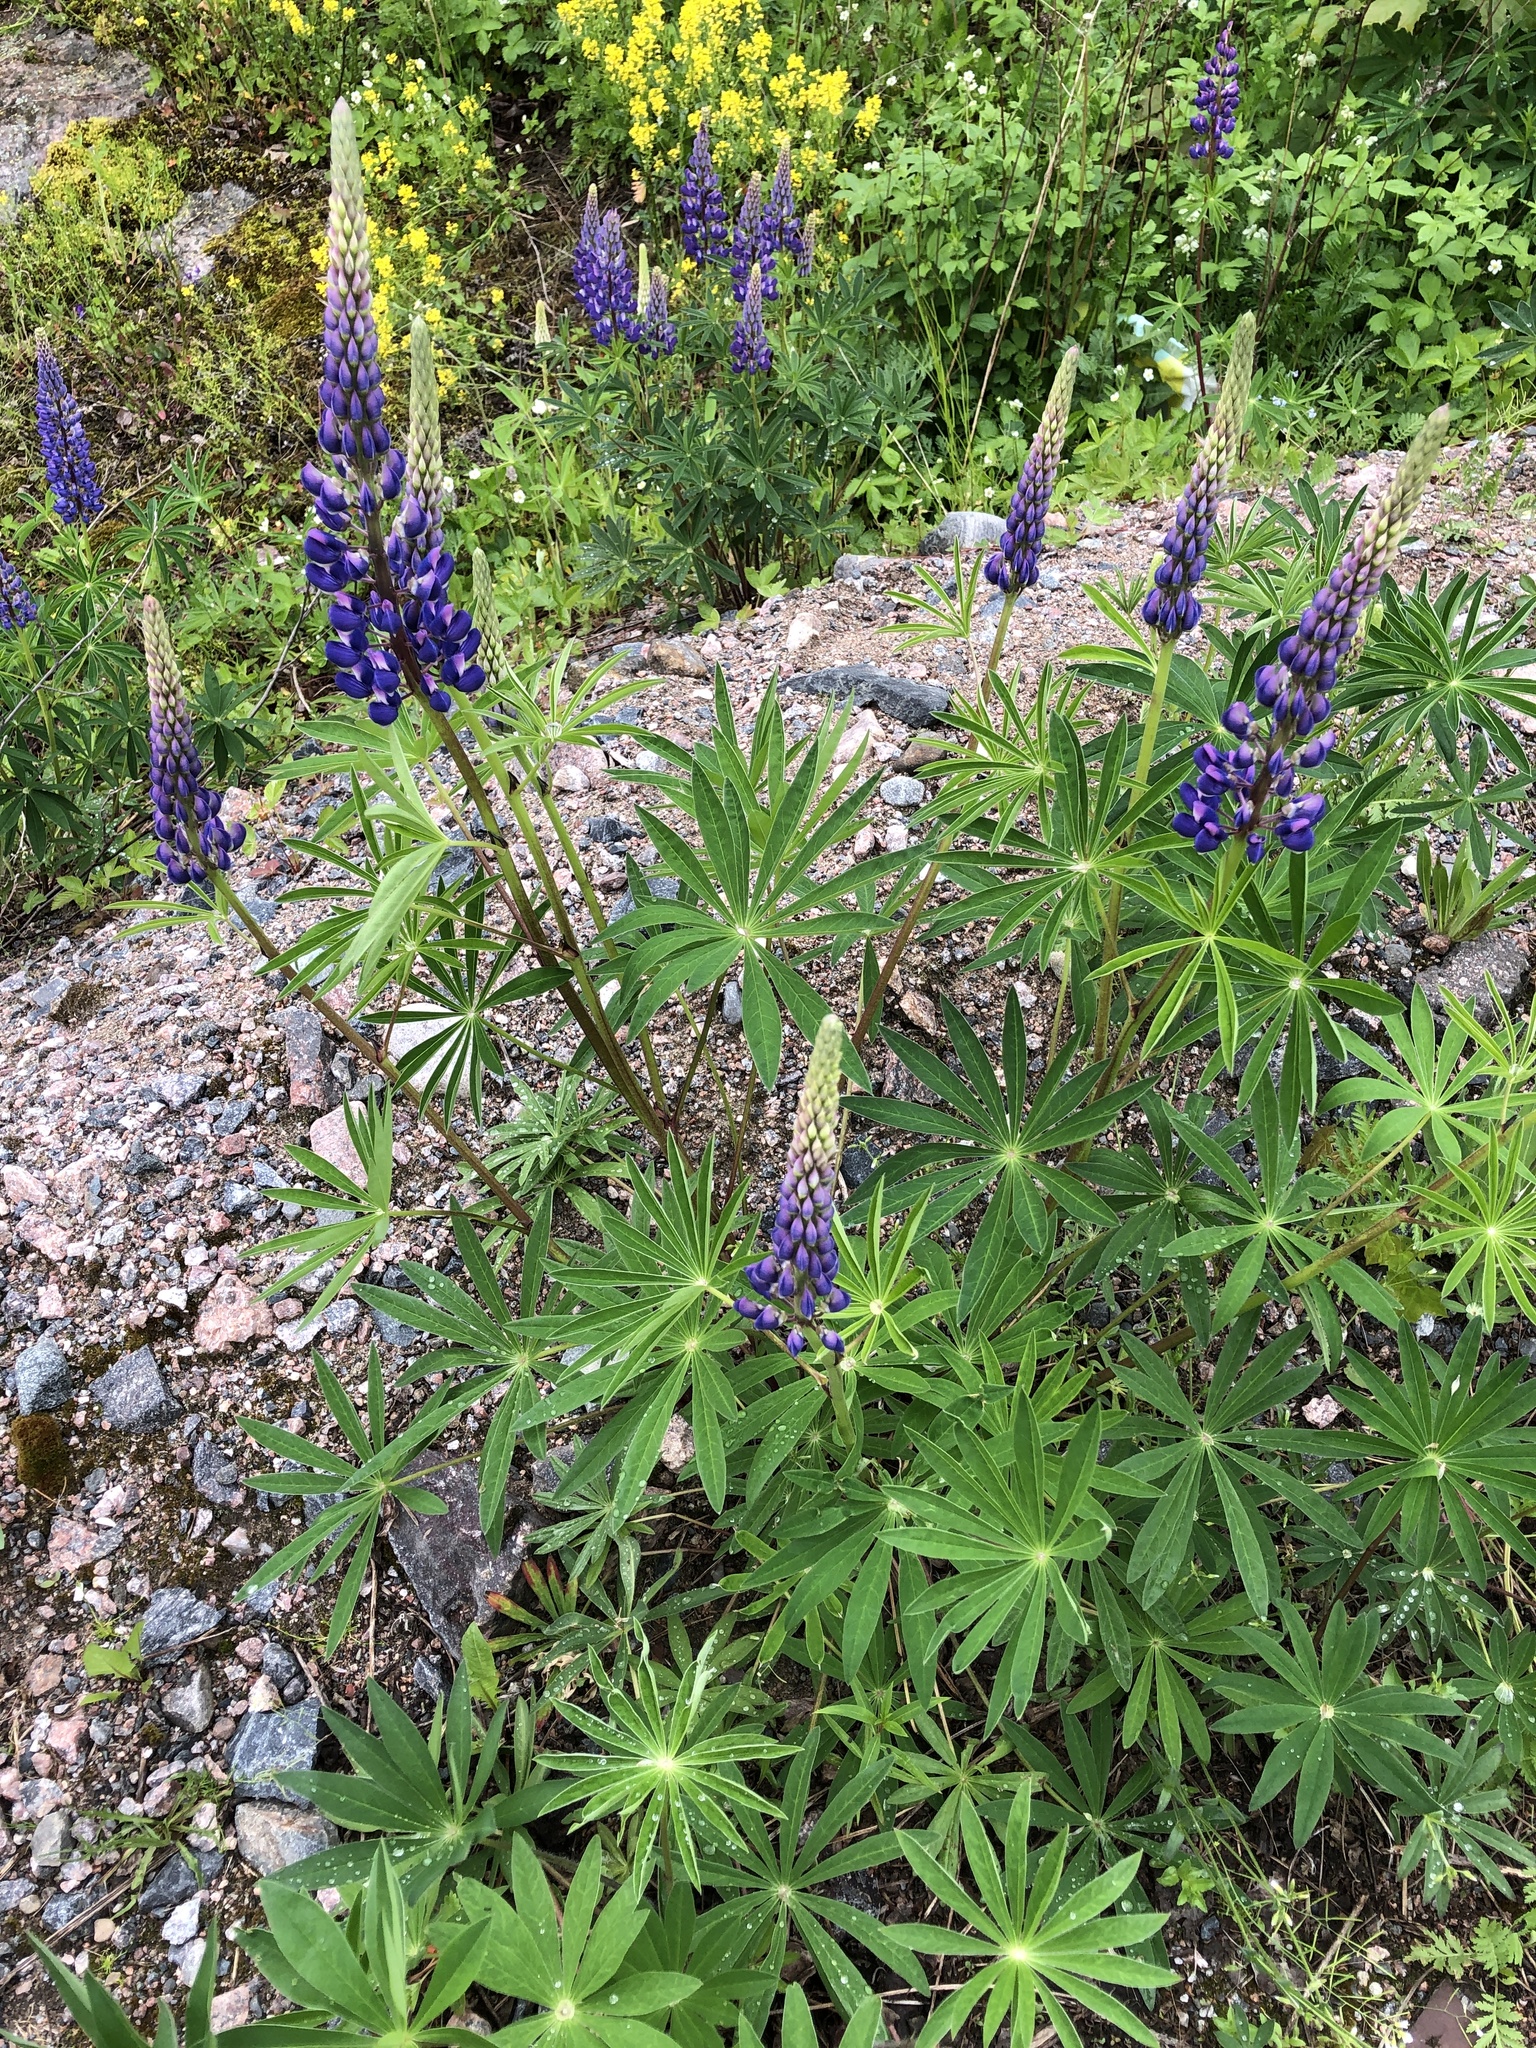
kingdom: Plantae
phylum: Tracheophyta
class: Magnoliopsida
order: Fabales
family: Fabaceae
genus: Lupinus
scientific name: Lupinus polyphyllus
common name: Garden lupin
